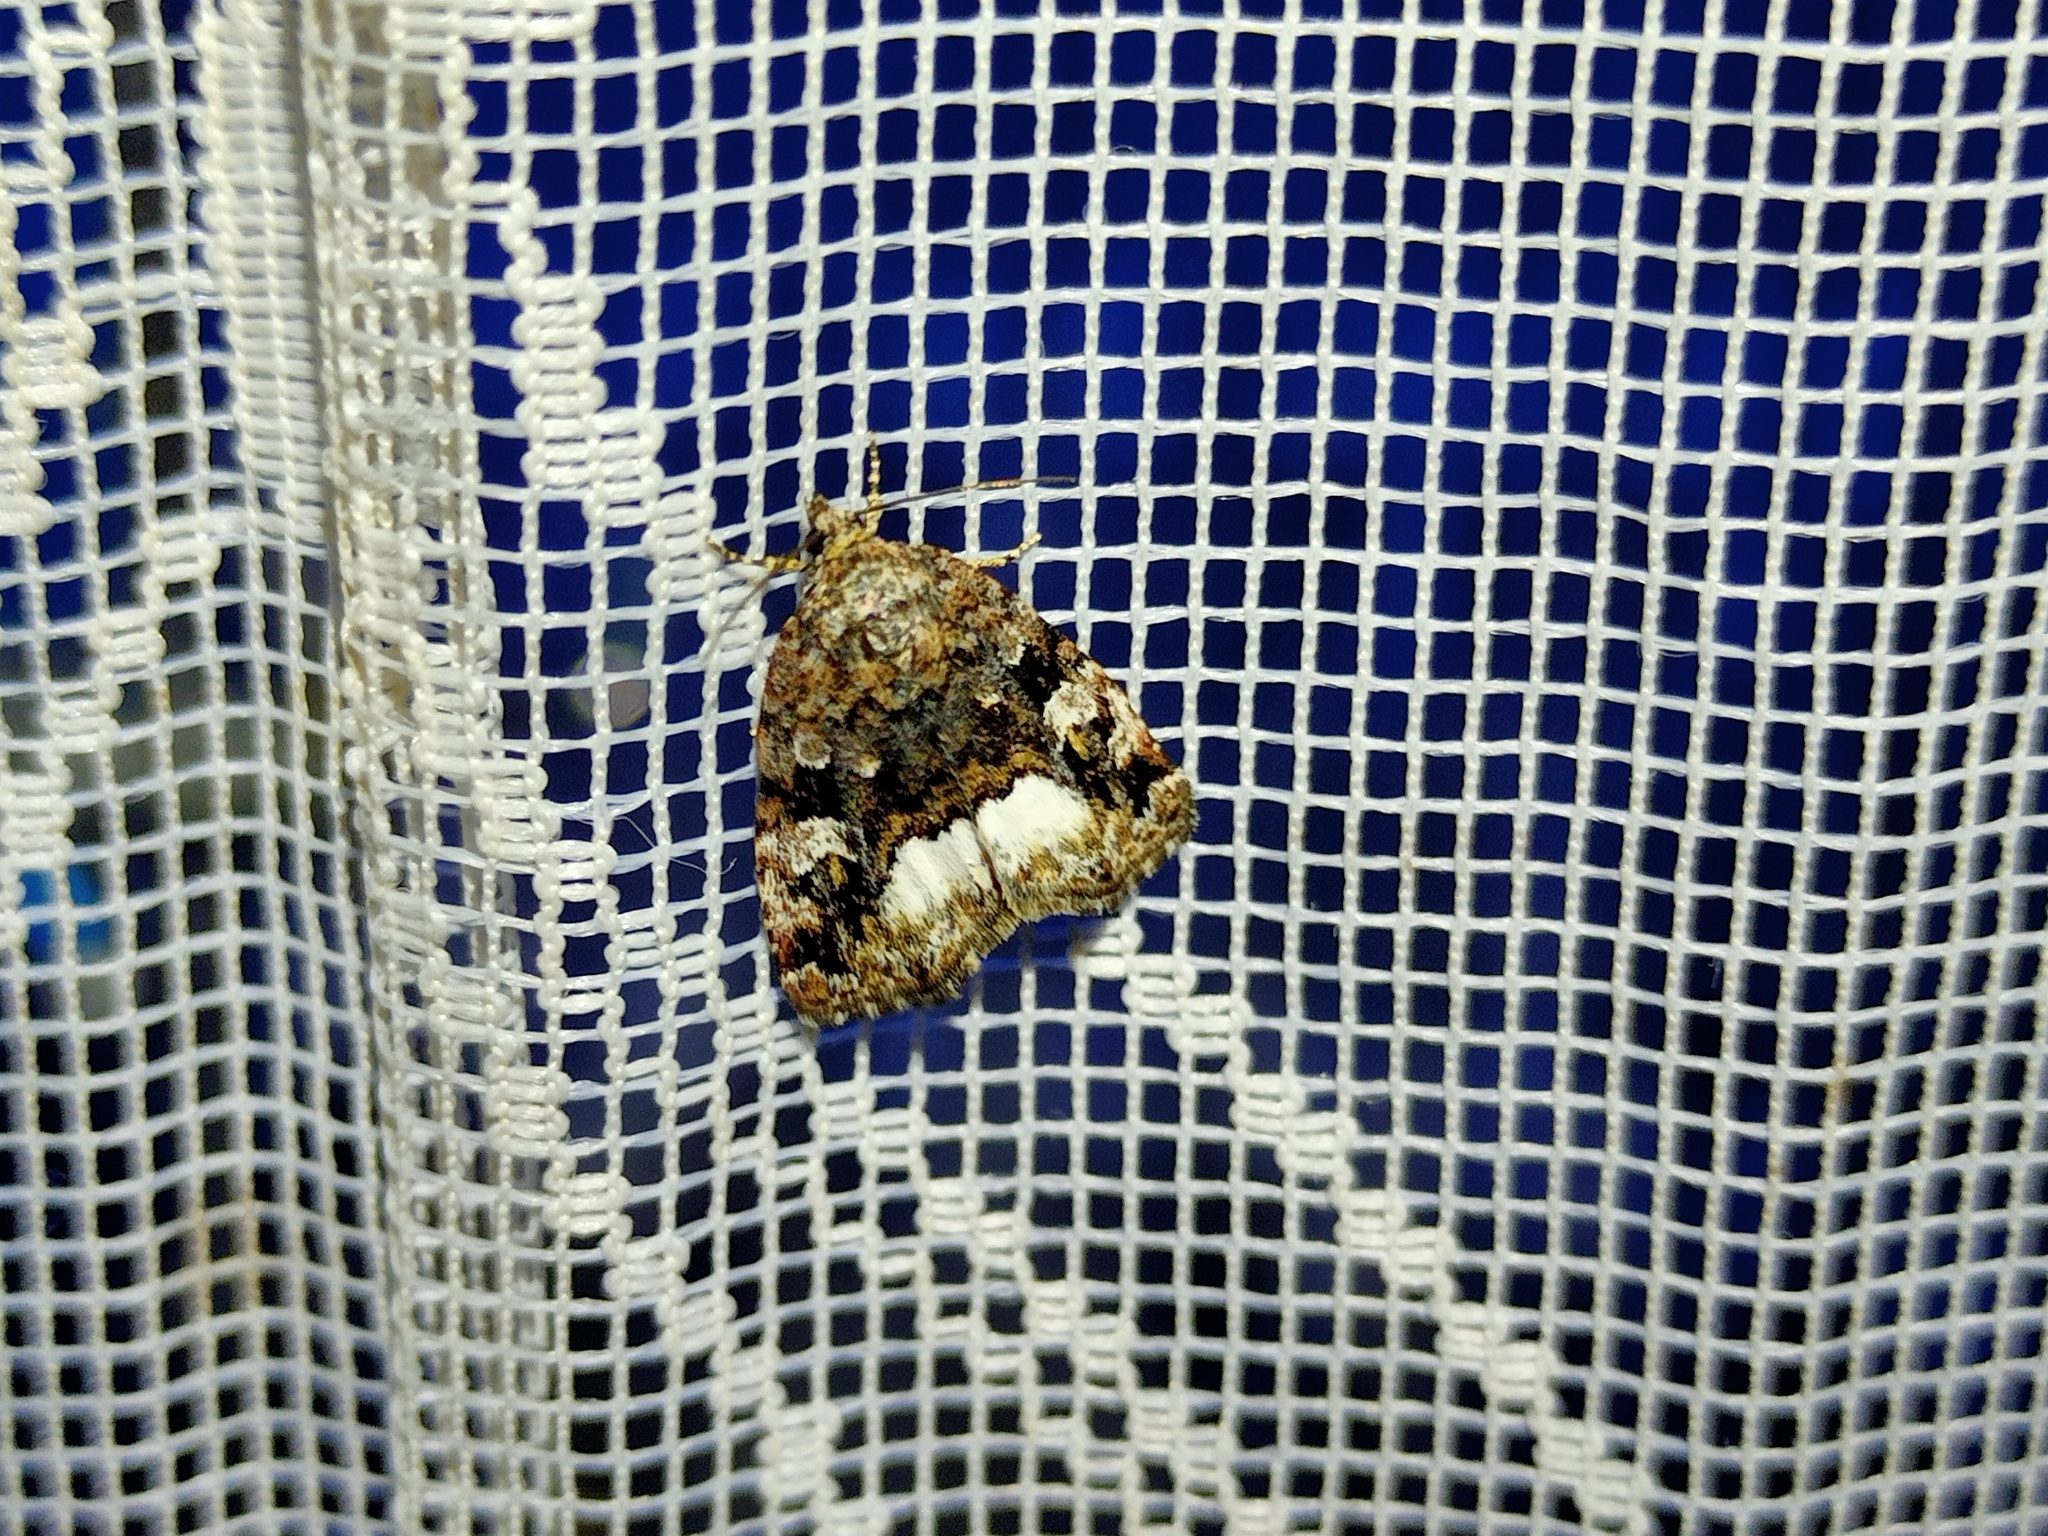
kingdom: Animalia
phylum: Arthropoda
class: Insecta
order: Lepidoptera
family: Noctuidae
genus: Deltote
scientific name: Deltote pygarga
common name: Marbled white spot
